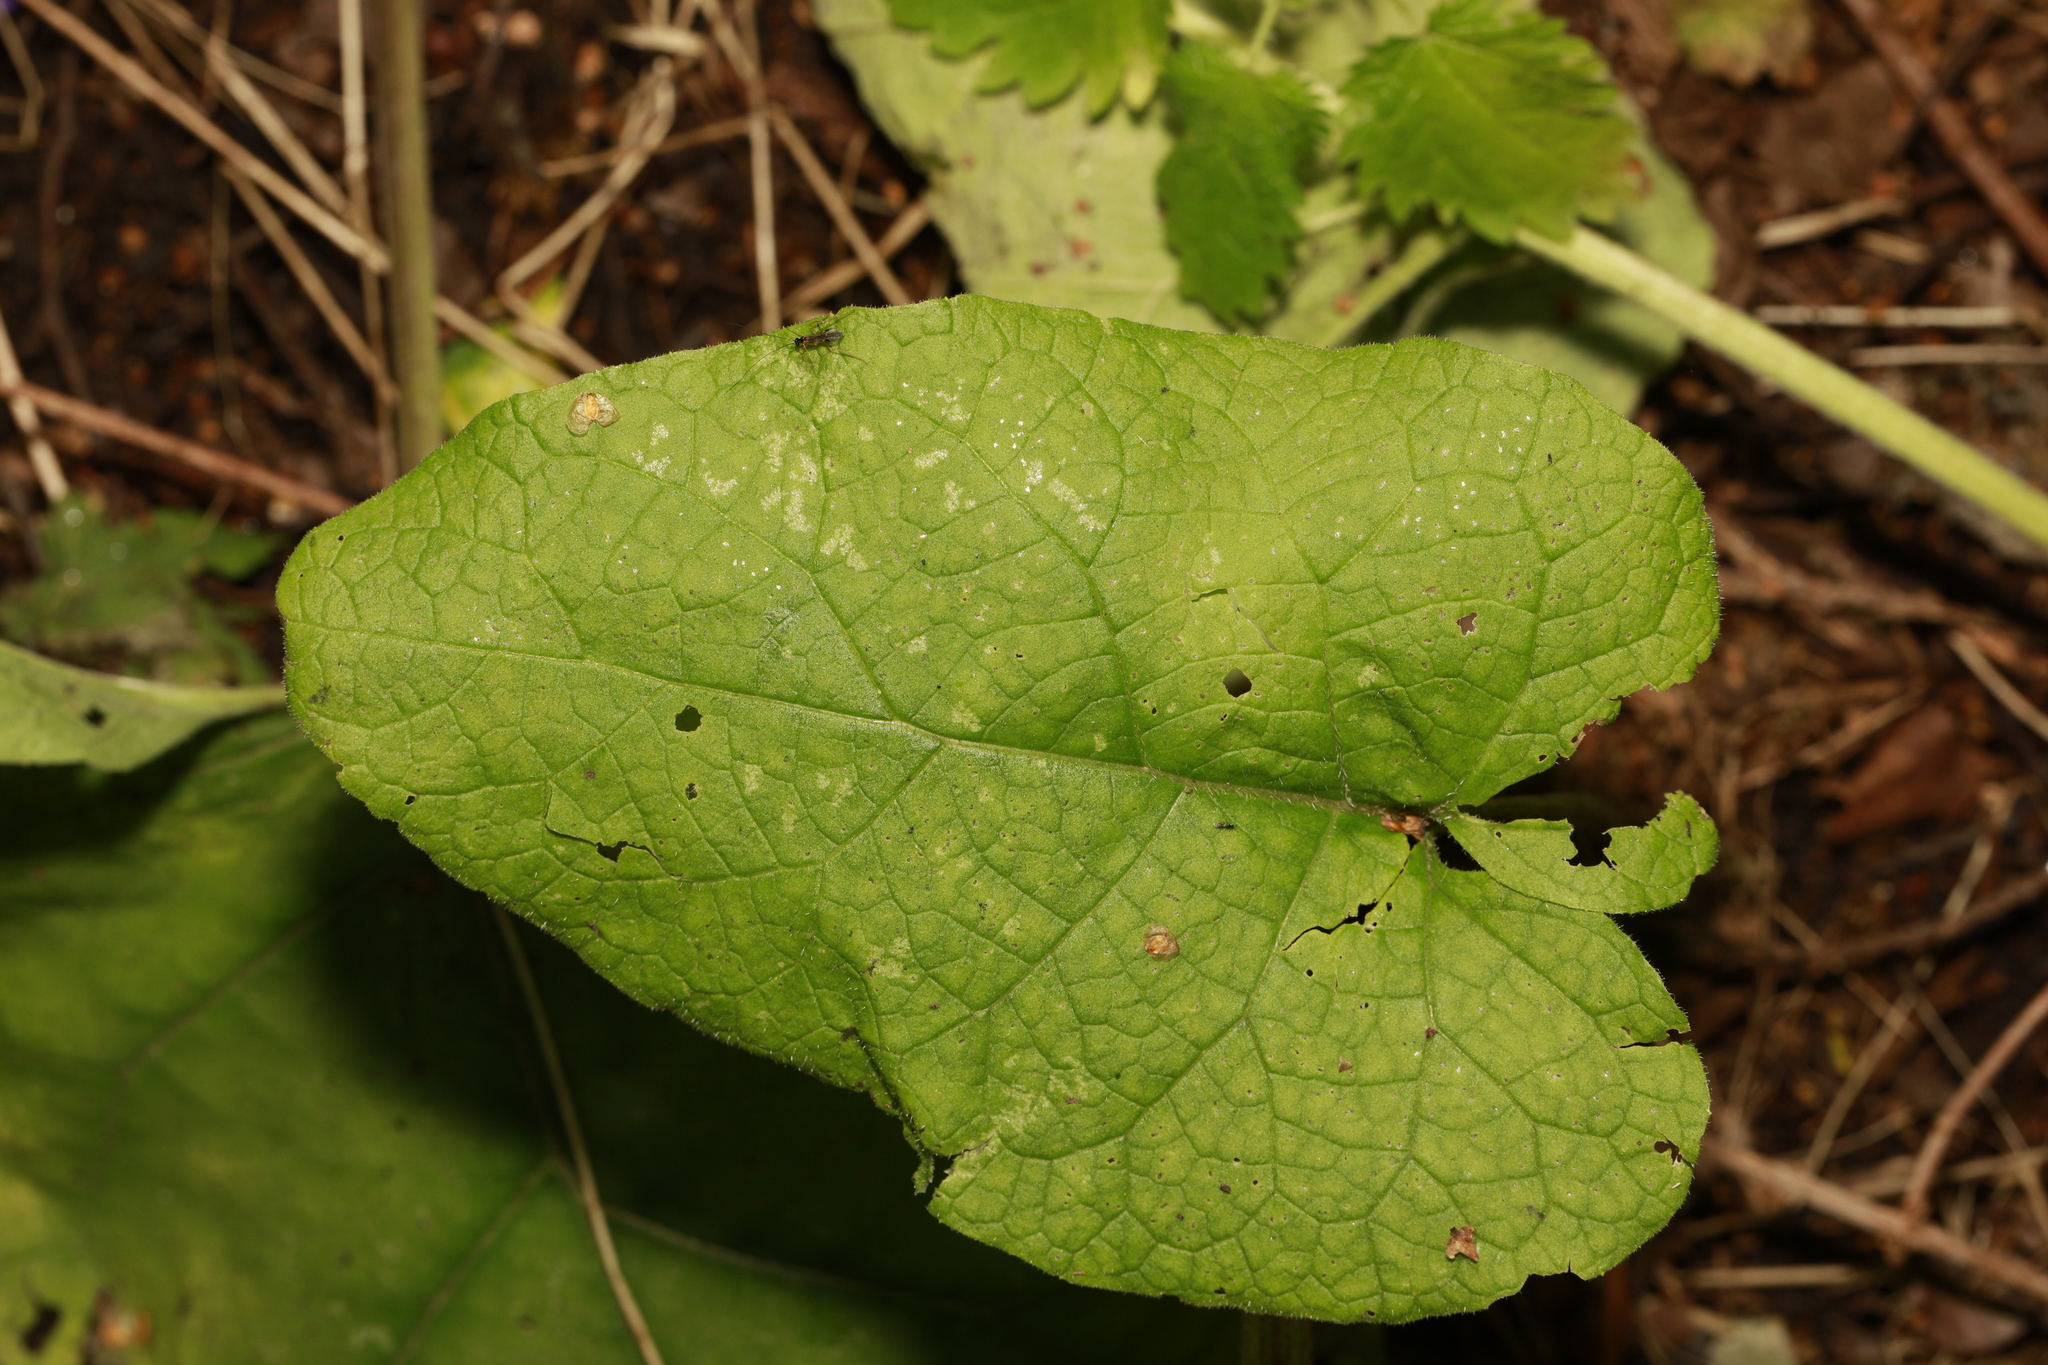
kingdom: Plantae
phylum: Tracheophyta
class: Magnoliopsida
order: Asterales
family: Asteraceae
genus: Arctium
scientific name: Arctium minus
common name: Lesser burdock
